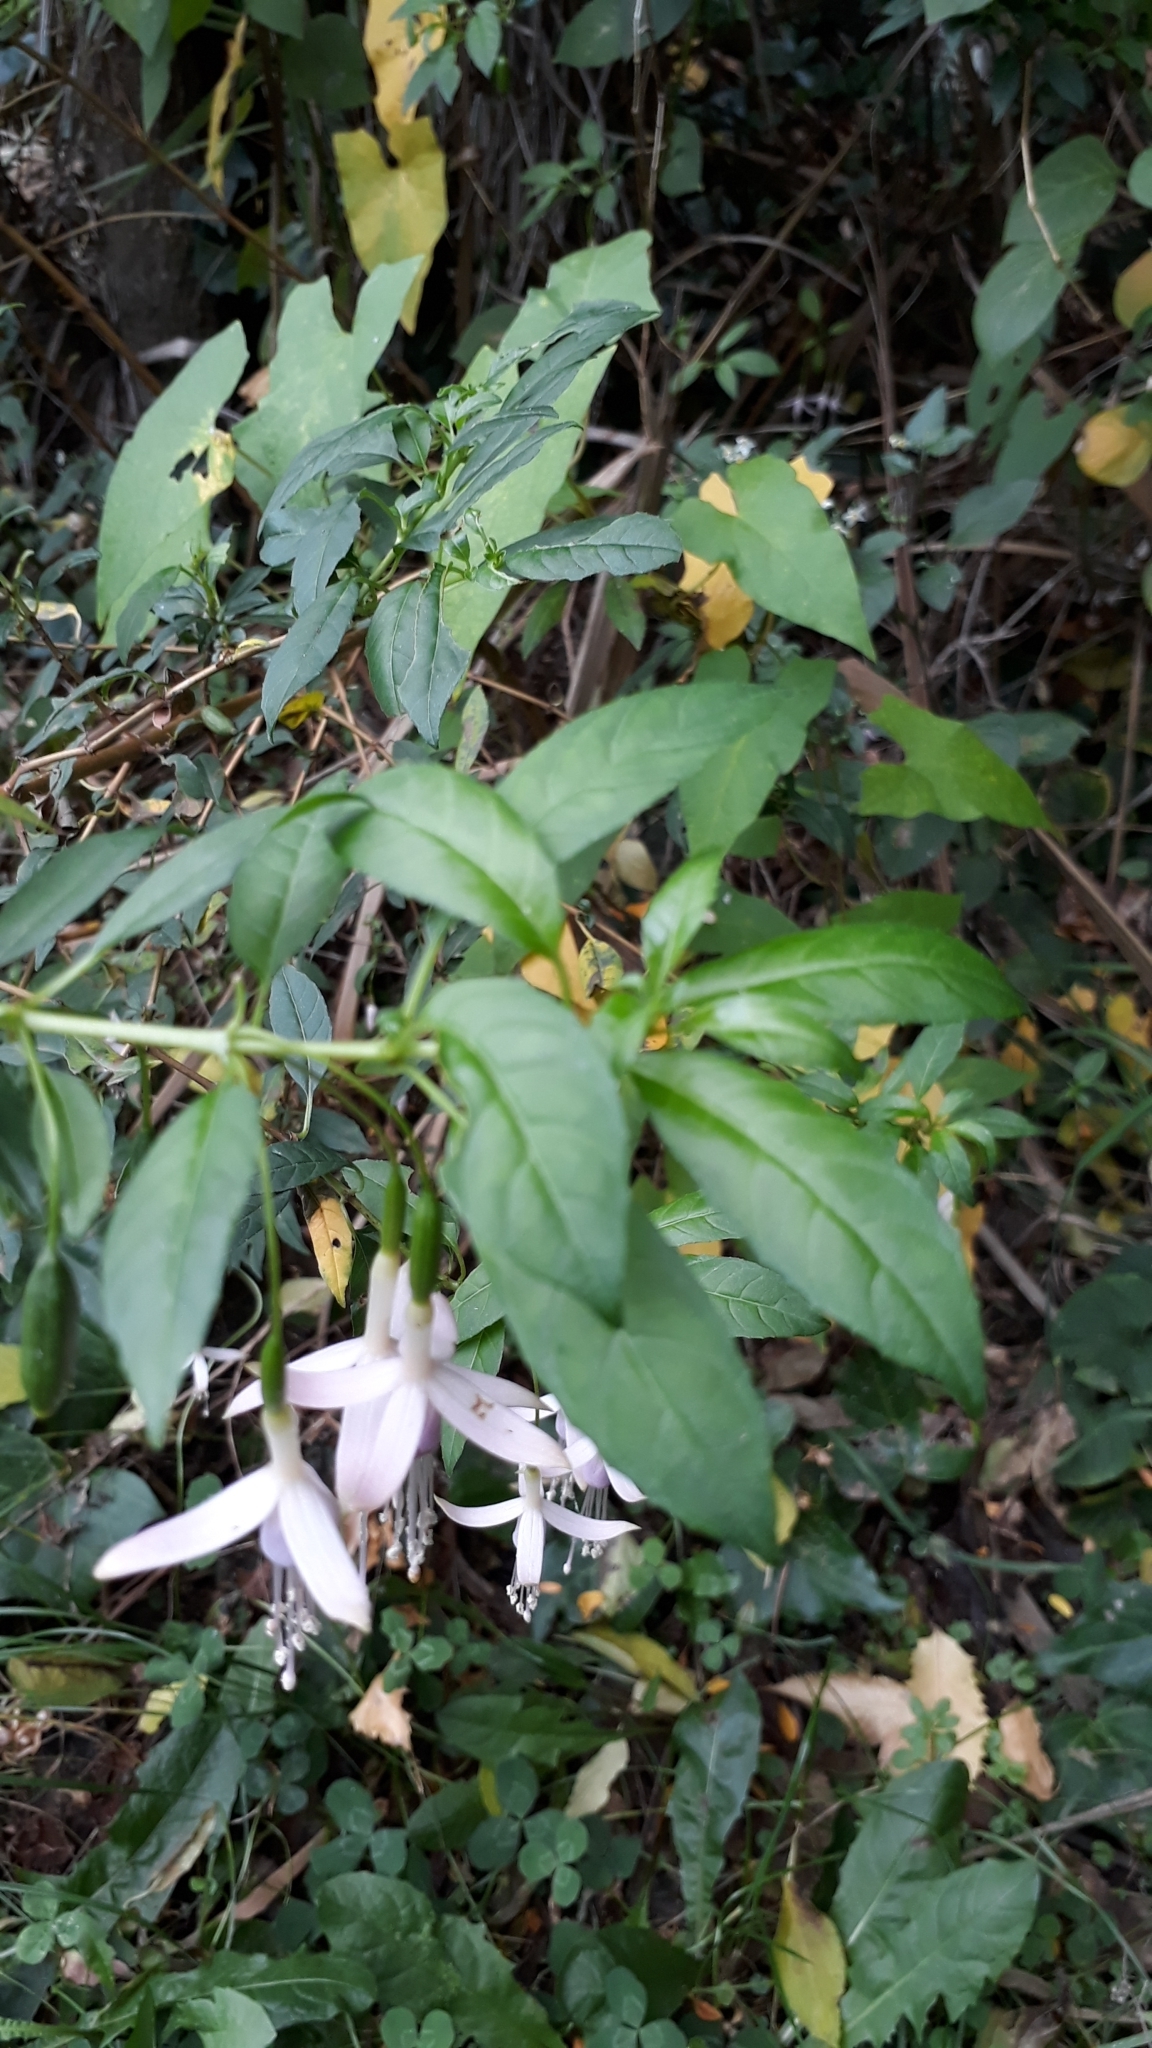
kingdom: Plantae
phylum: Tracheophyta
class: Magnoliopsida
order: Myrtales
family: Onagraceae
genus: Fuchsia
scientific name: Fuchsia magellanica
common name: Hardy fuchsia
